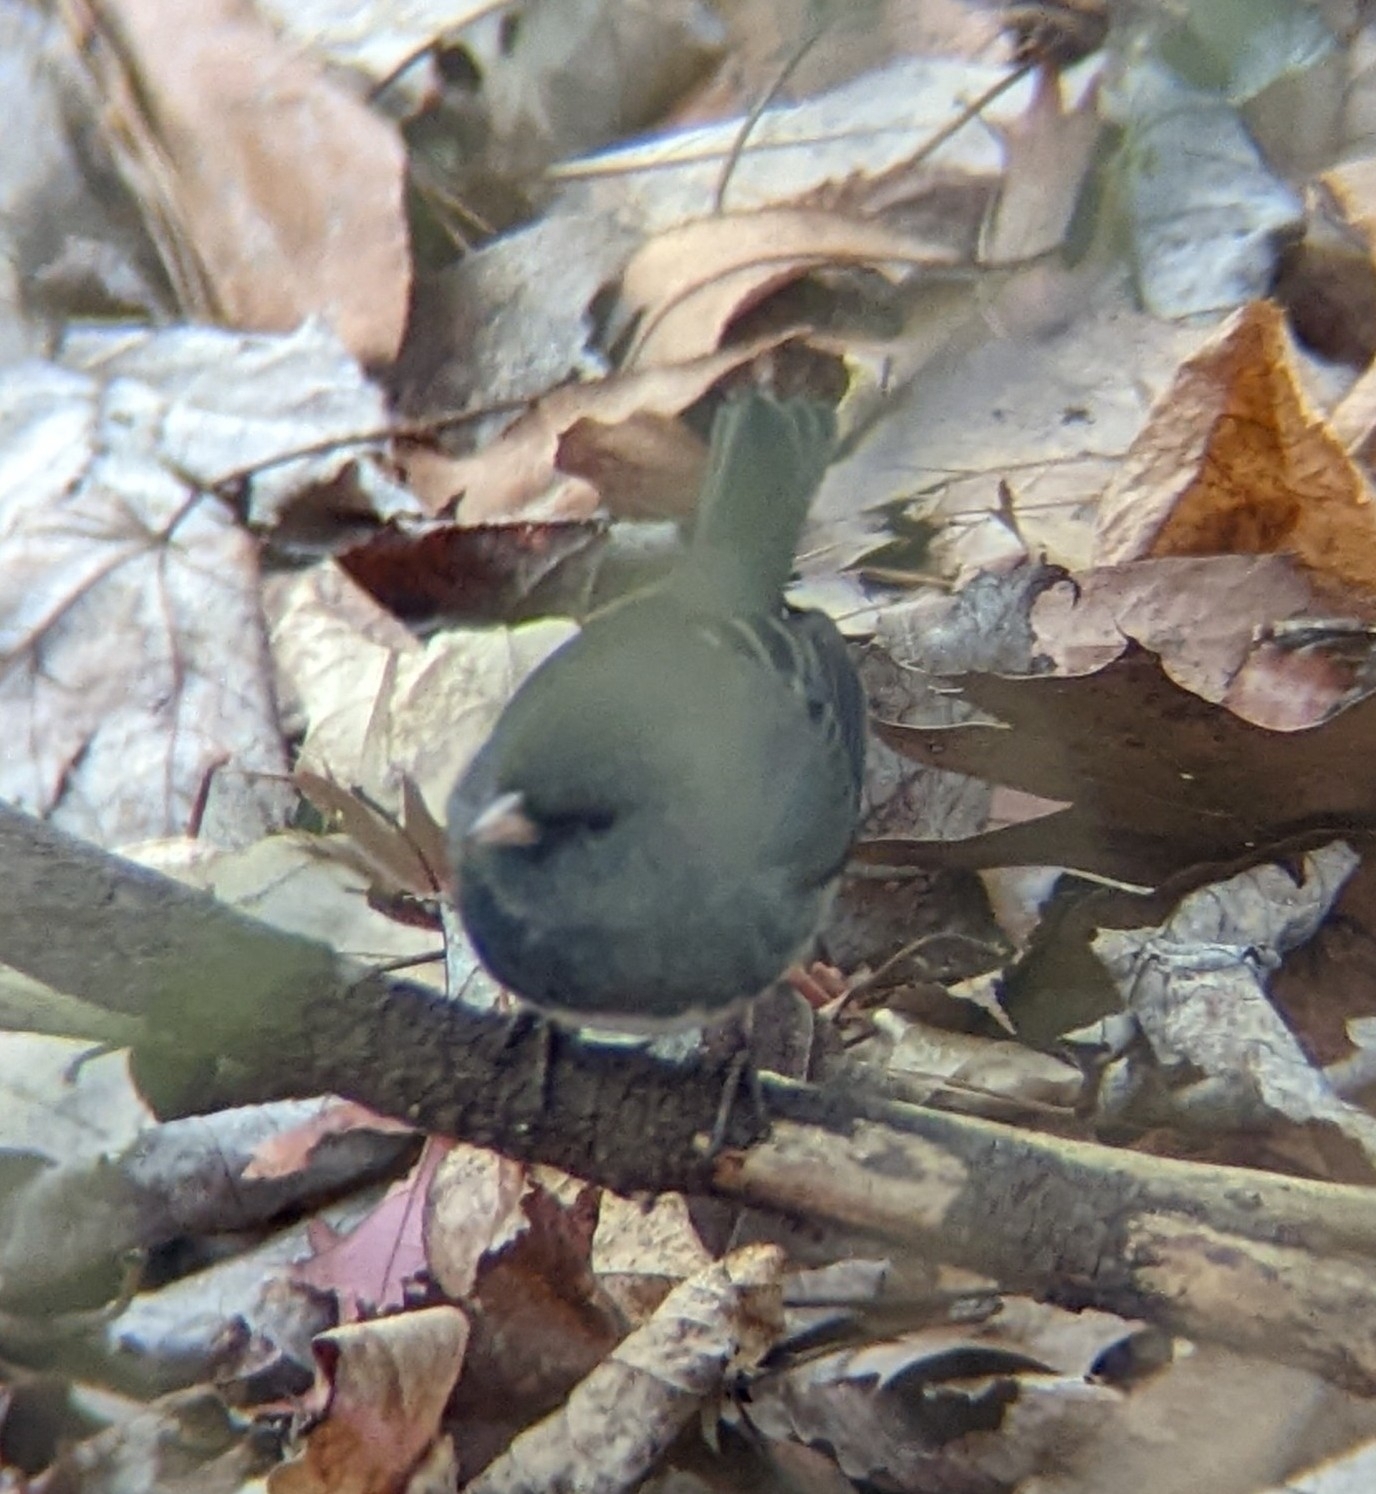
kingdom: Animalia
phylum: Chordata
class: Aves
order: Passeriformes
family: Passerellidae
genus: Junco
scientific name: Junco hyemalis
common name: Dark-eyed junco
